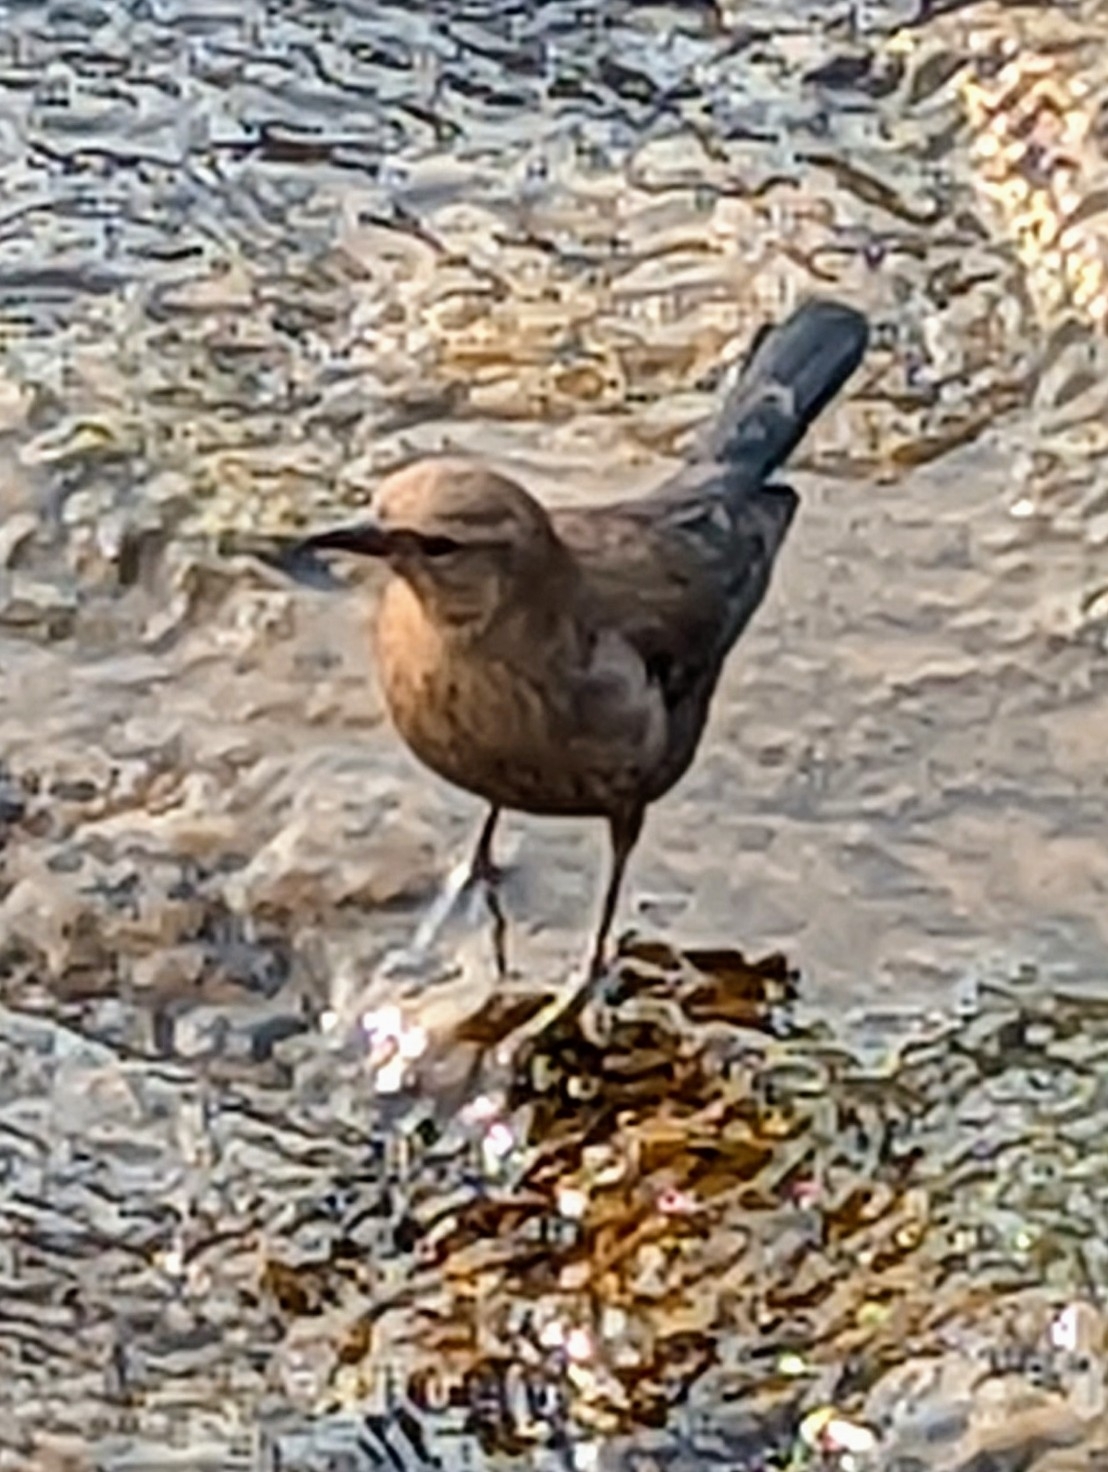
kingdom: Animalia
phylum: Chordata
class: Aves
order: Passeriformes
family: Icteridae
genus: Euphagus
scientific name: Euphagus cyanocephalus
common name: Brewer's blackbird
